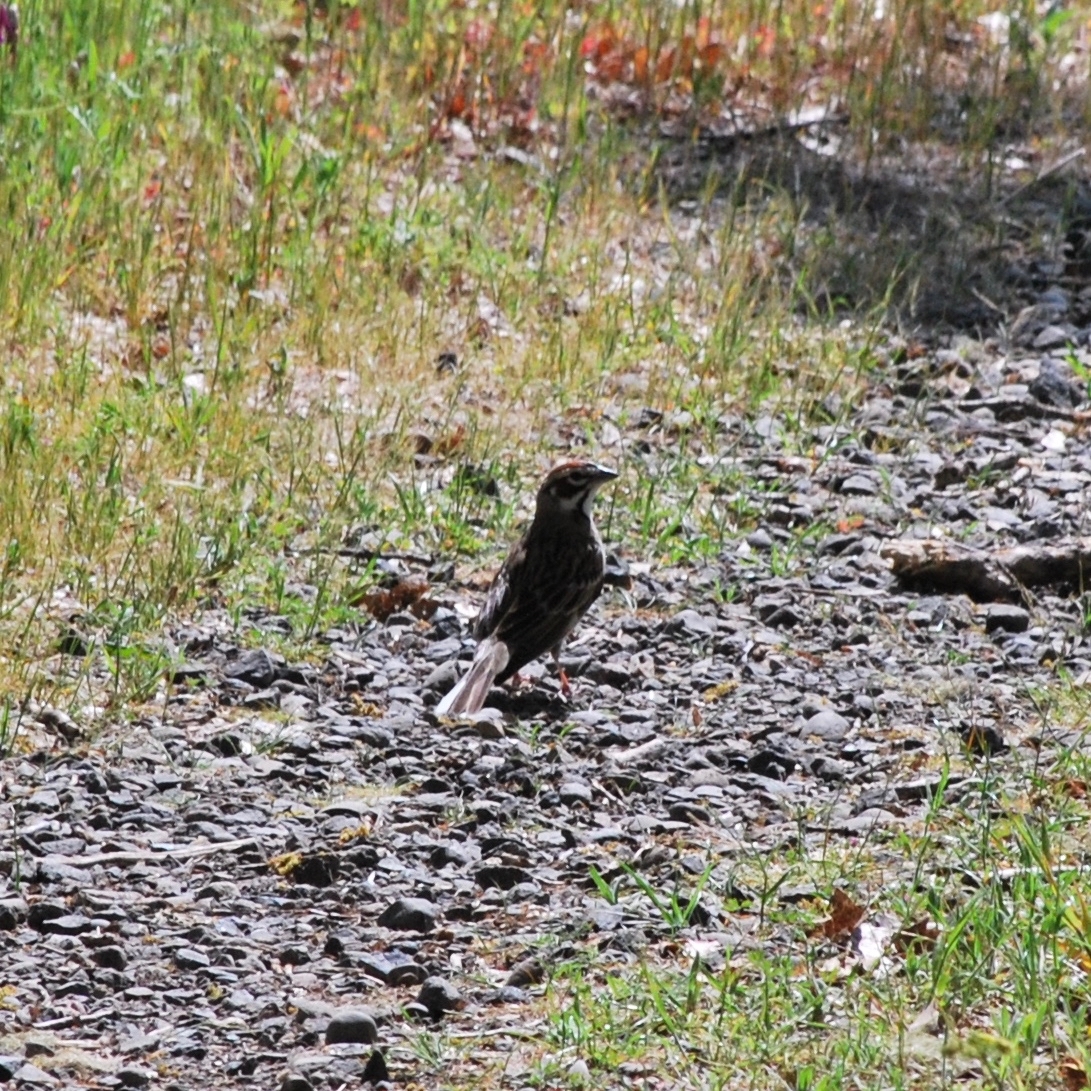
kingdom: Animalia
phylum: Chordata
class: Aves
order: Passeriformes
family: Passerellidae
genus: Chondestes
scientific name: Chondestes grammacus
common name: Lark sparrow
